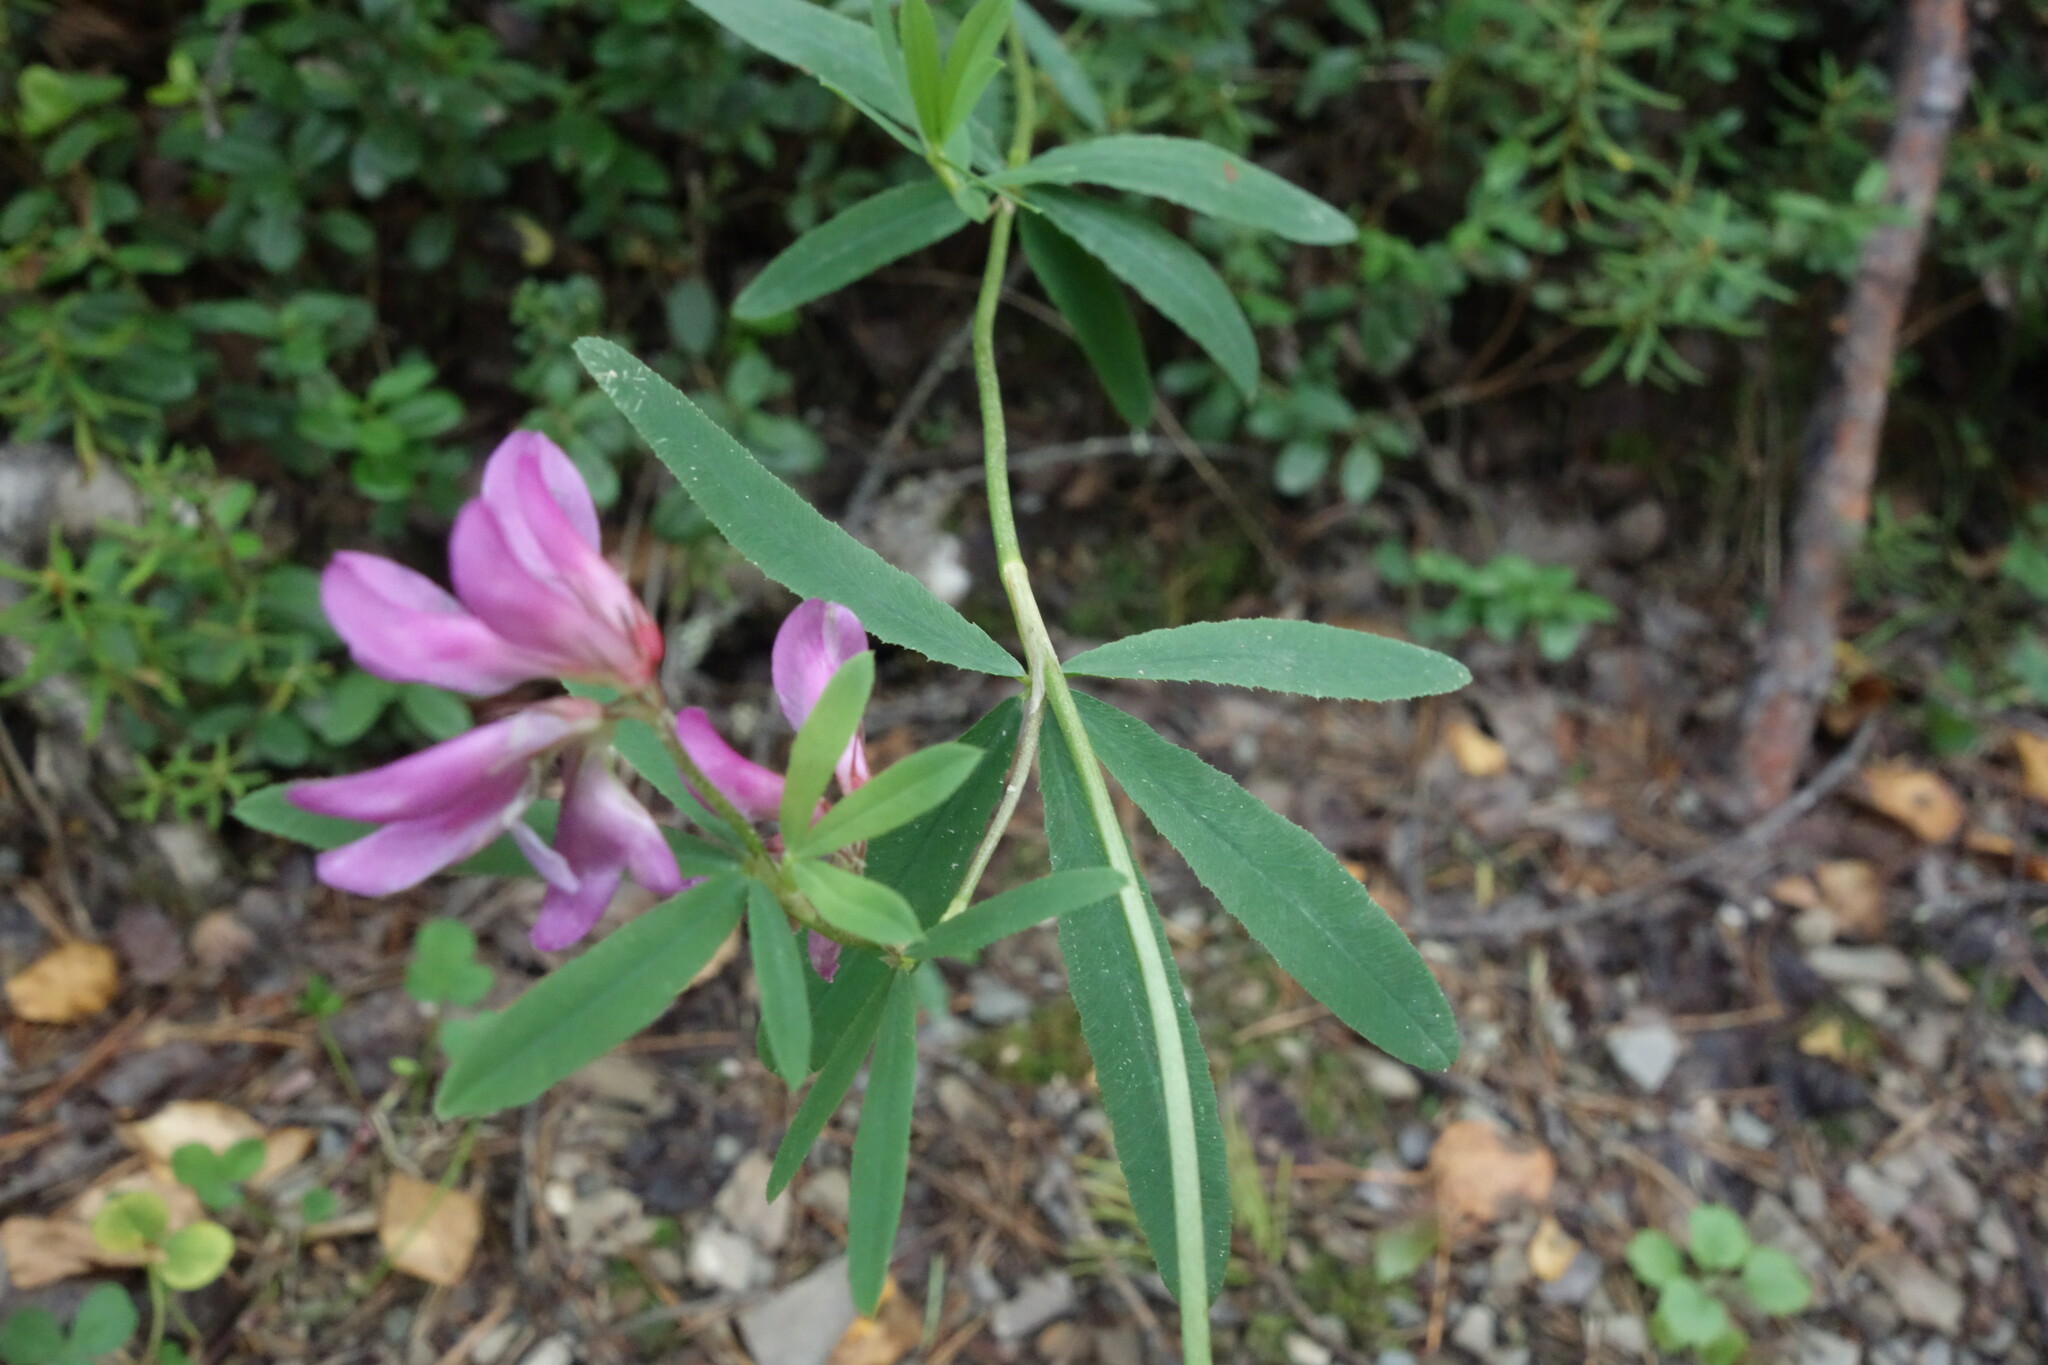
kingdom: Plantae
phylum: Tracheophyta
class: Magnoliopsida
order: Fabales
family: Fabaceae
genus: Trifolium
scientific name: Trifolium lupinaster
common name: Lupine clover
